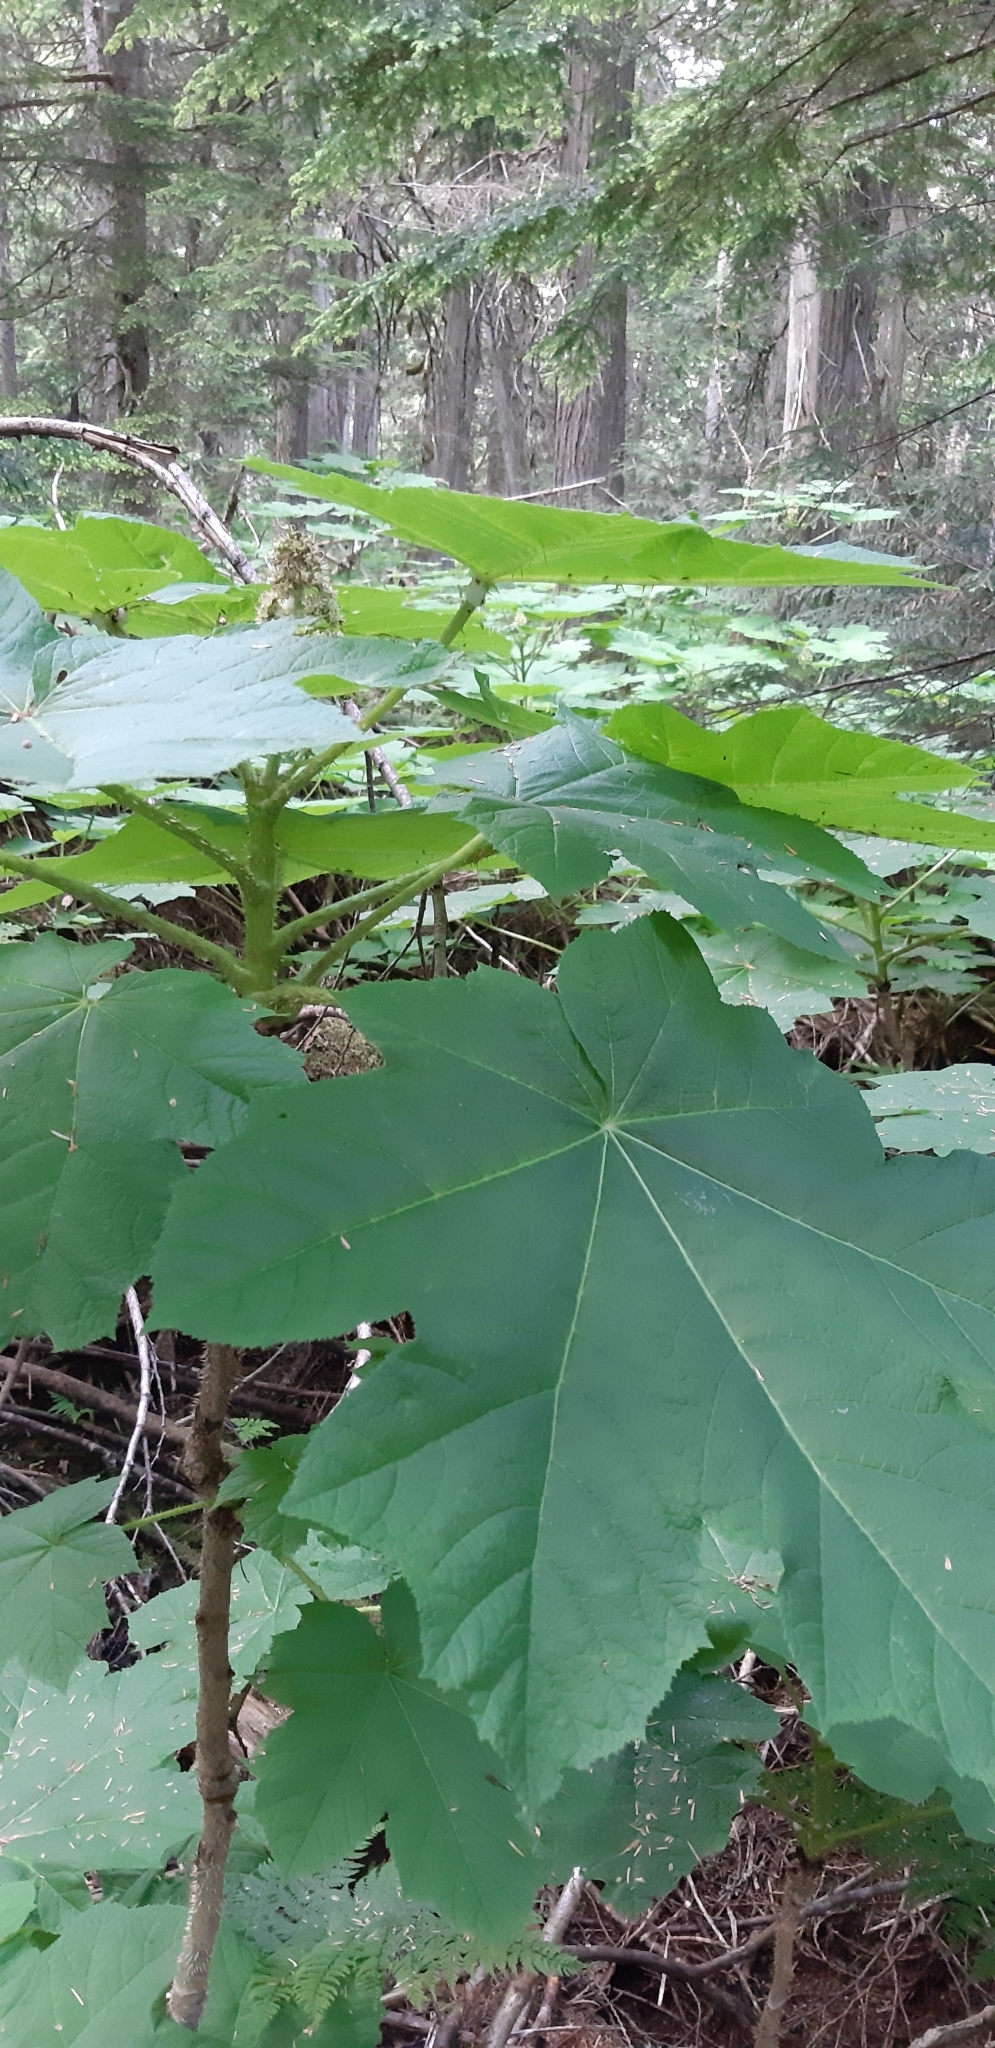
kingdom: Plantae
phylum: Tracheophyta
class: Magnoliopsida
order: Apiales
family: Araliaceae
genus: Oplopanax
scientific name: Oplopanax horridus
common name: Devil's walking-stick
